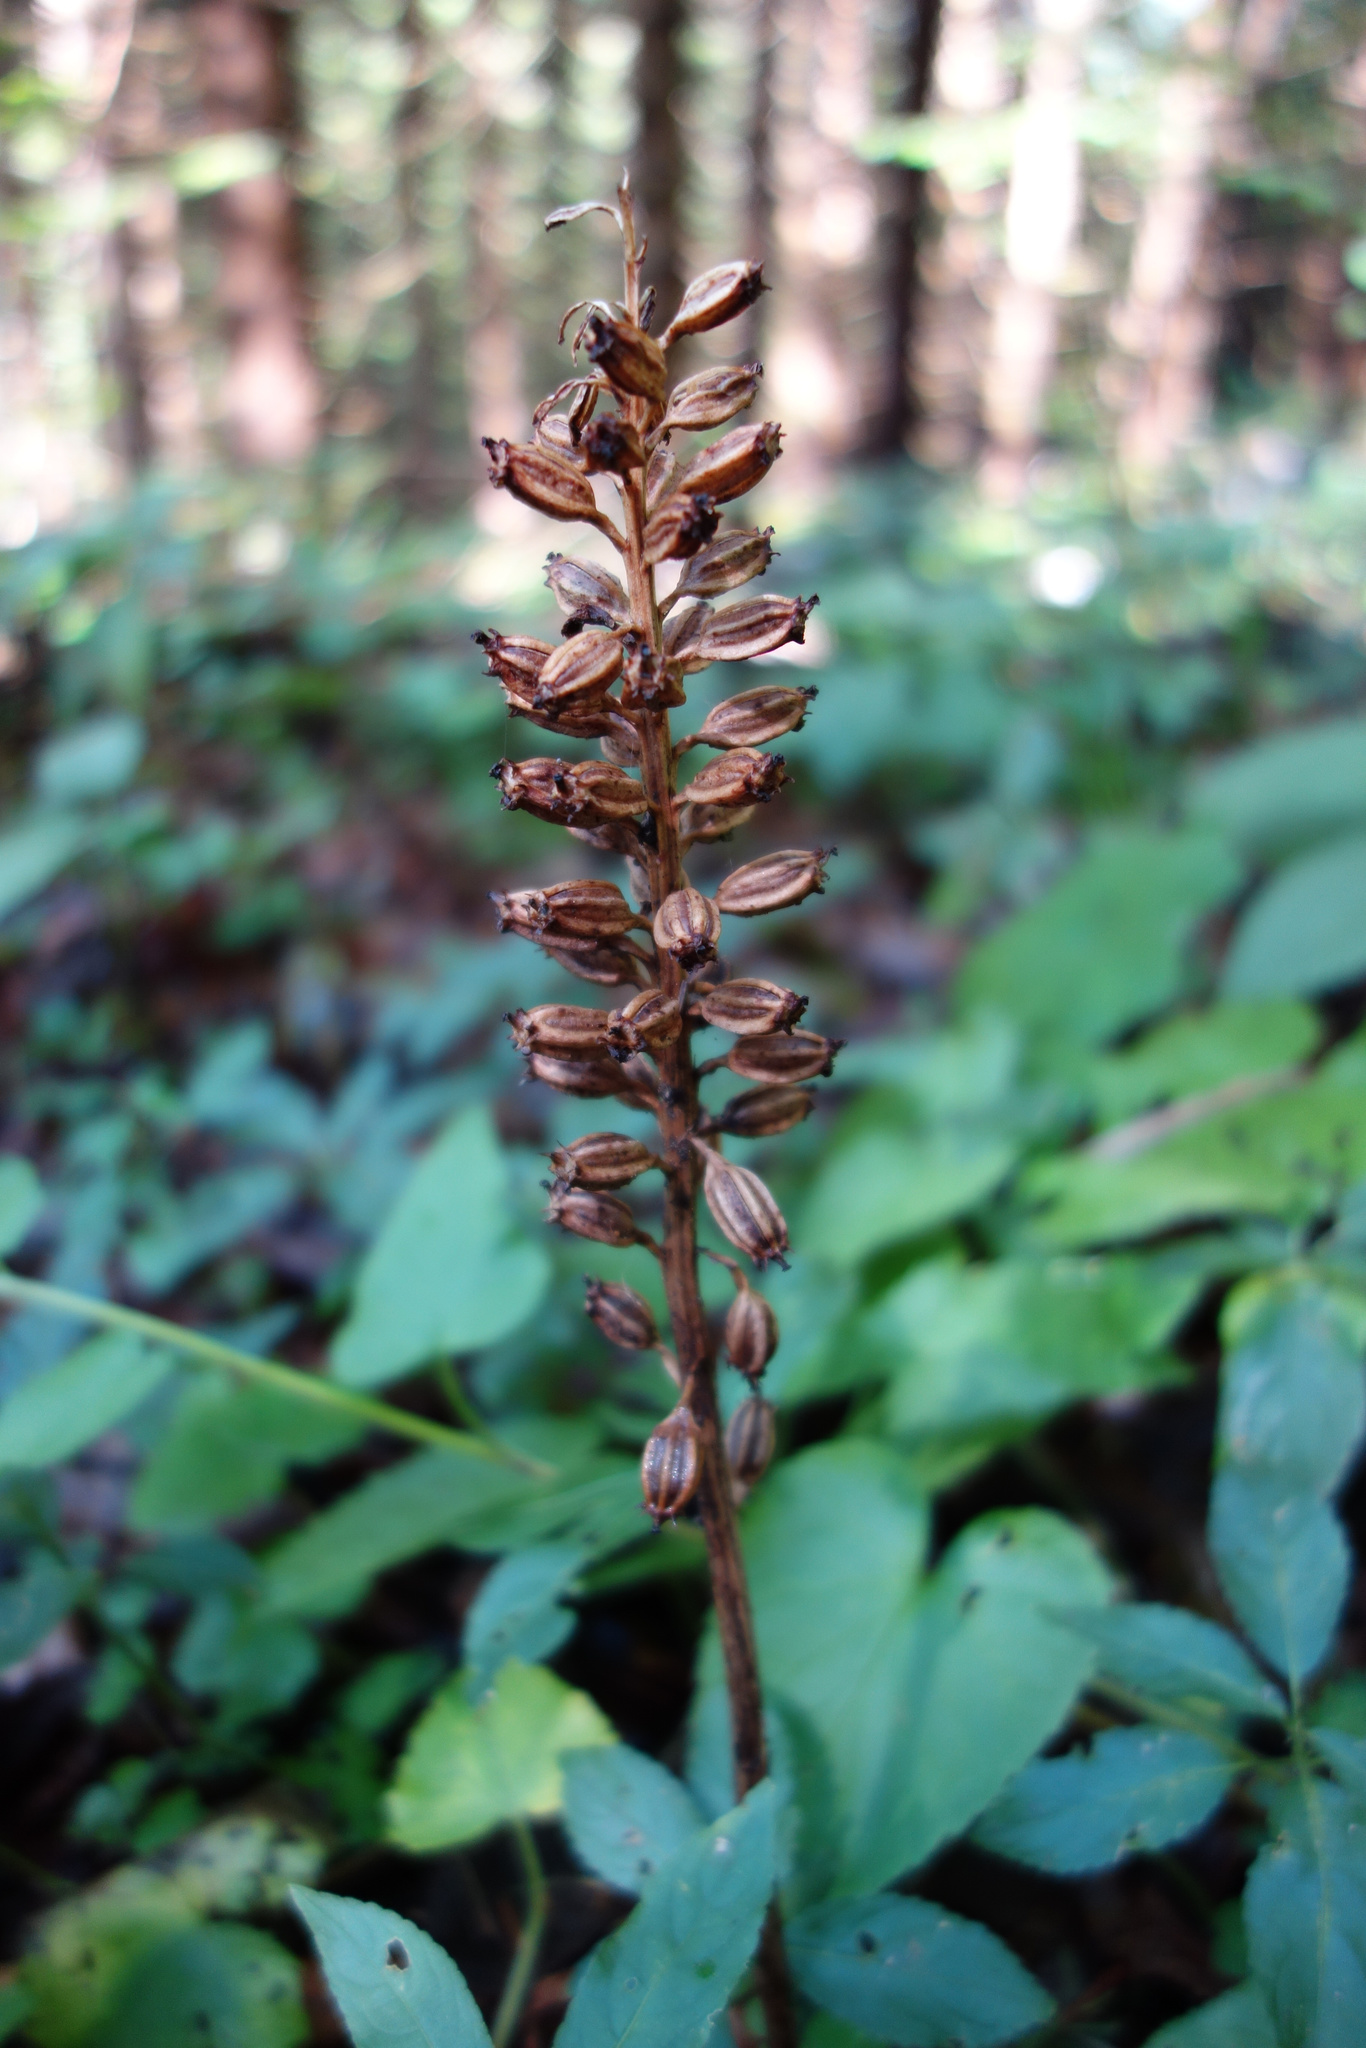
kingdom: Plantae
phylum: Tracheophyta
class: Liliopsida
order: Asparagales
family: Orchidaceae
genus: Neottia
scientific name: Neottia nidus-avis
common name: Bird's-nest orchid
